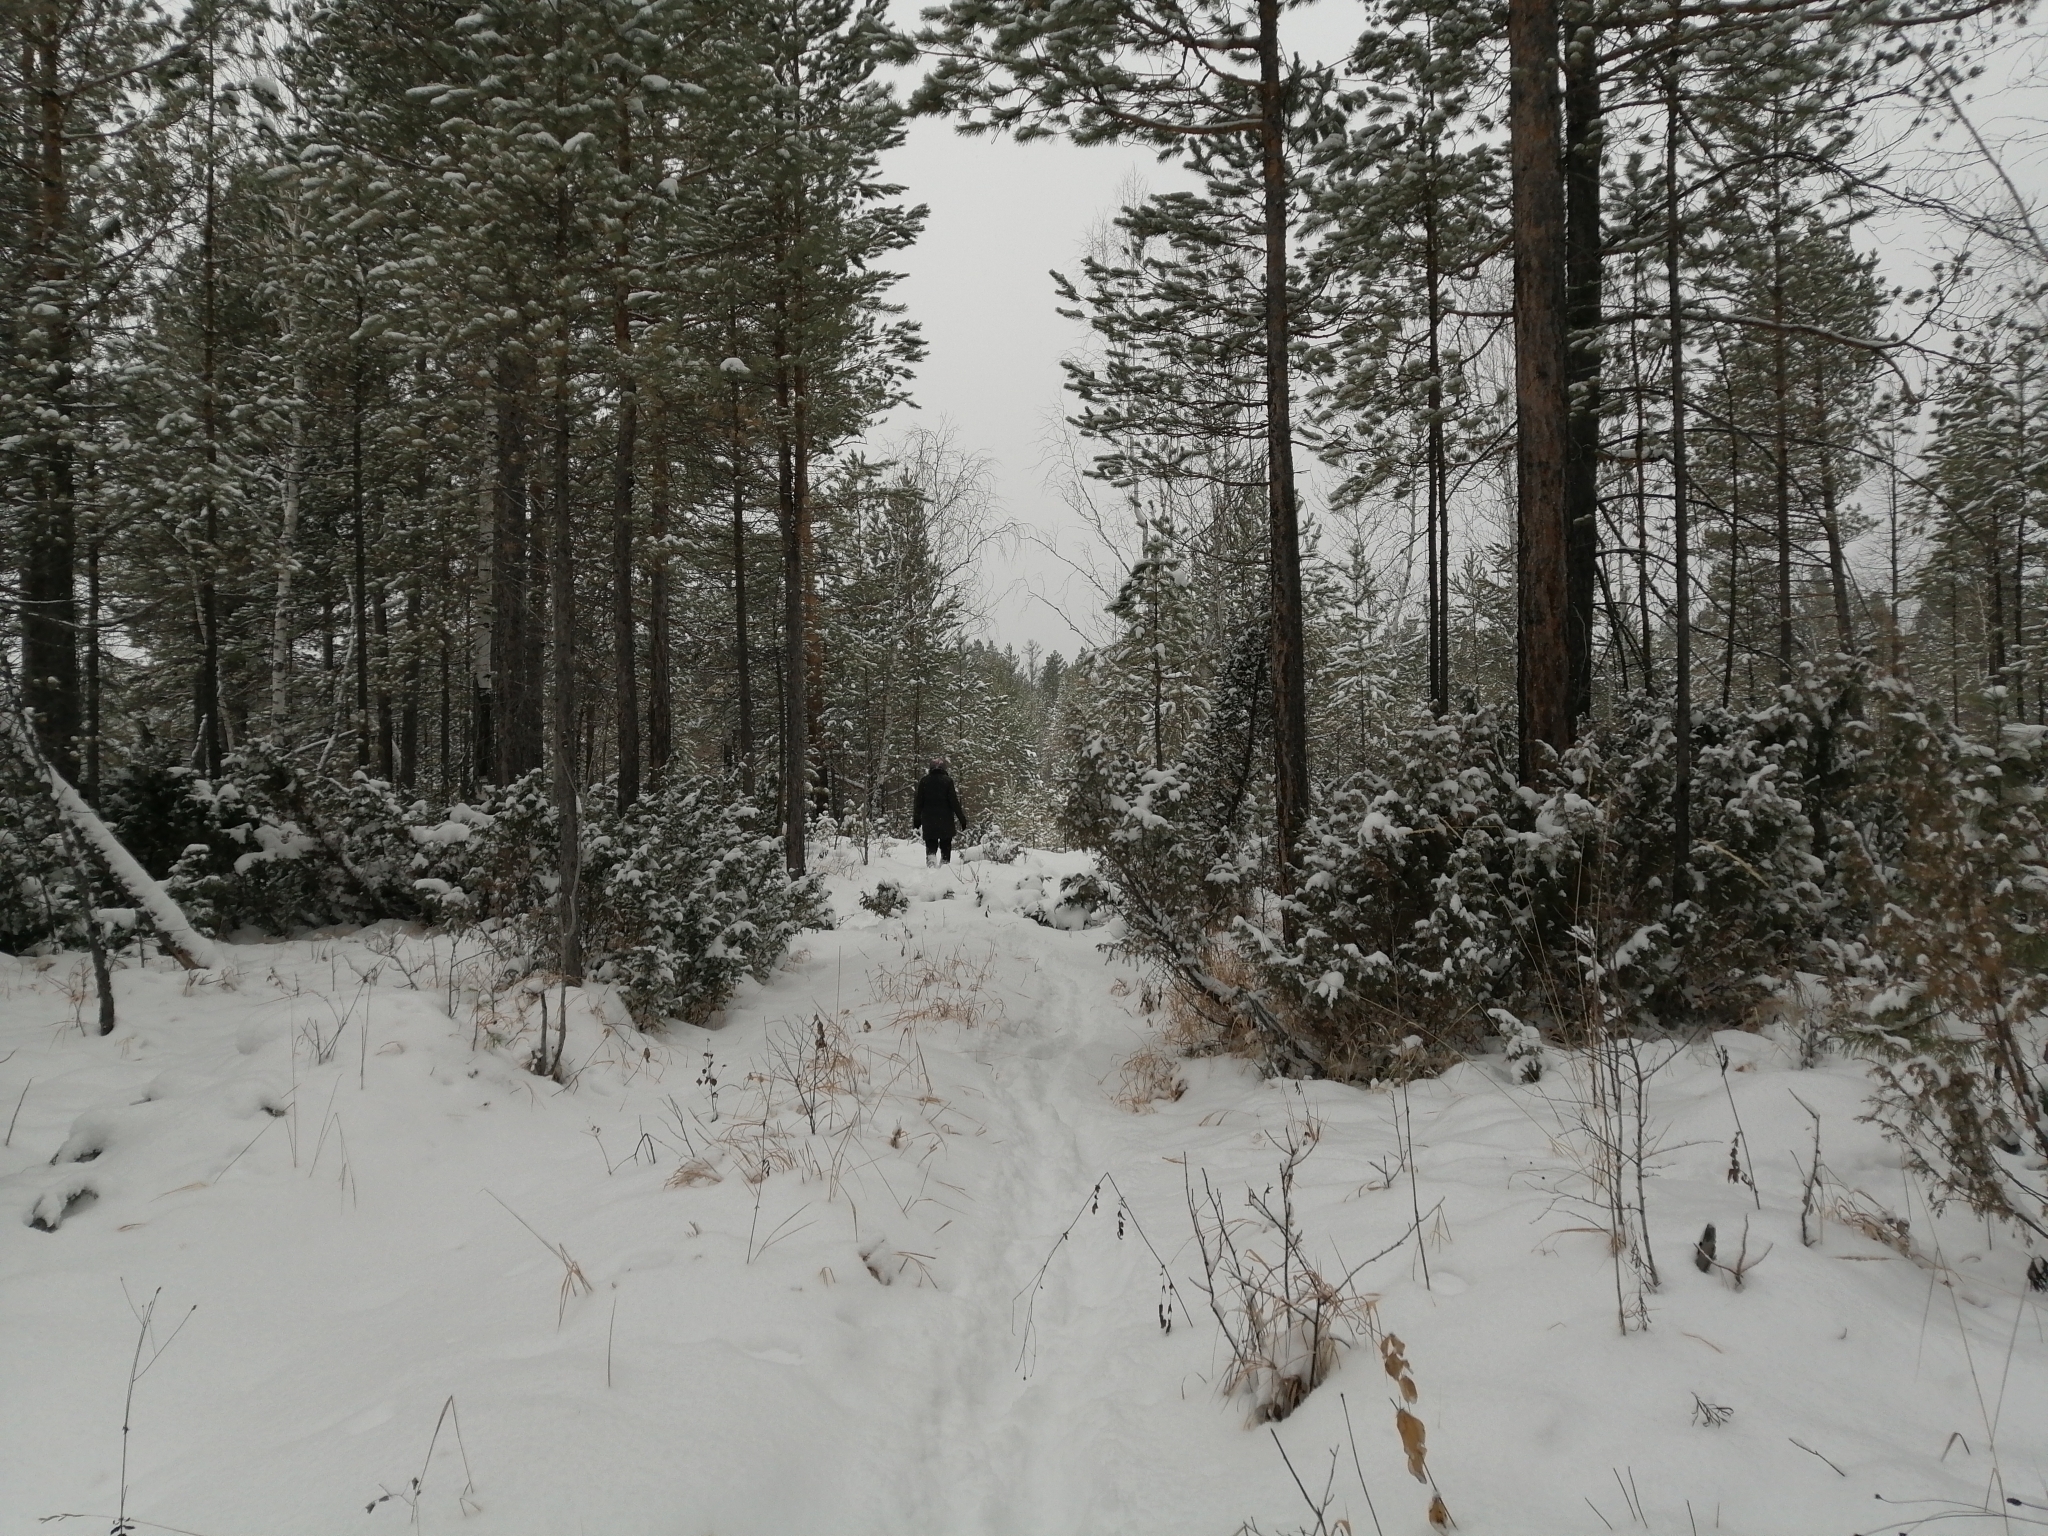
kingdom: Plantae
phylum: Tracheophyta
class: Pinopsida
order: Pinales
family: Cupressaceae
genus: Juniperus
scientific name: Juniperus communis
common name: Common juniper
